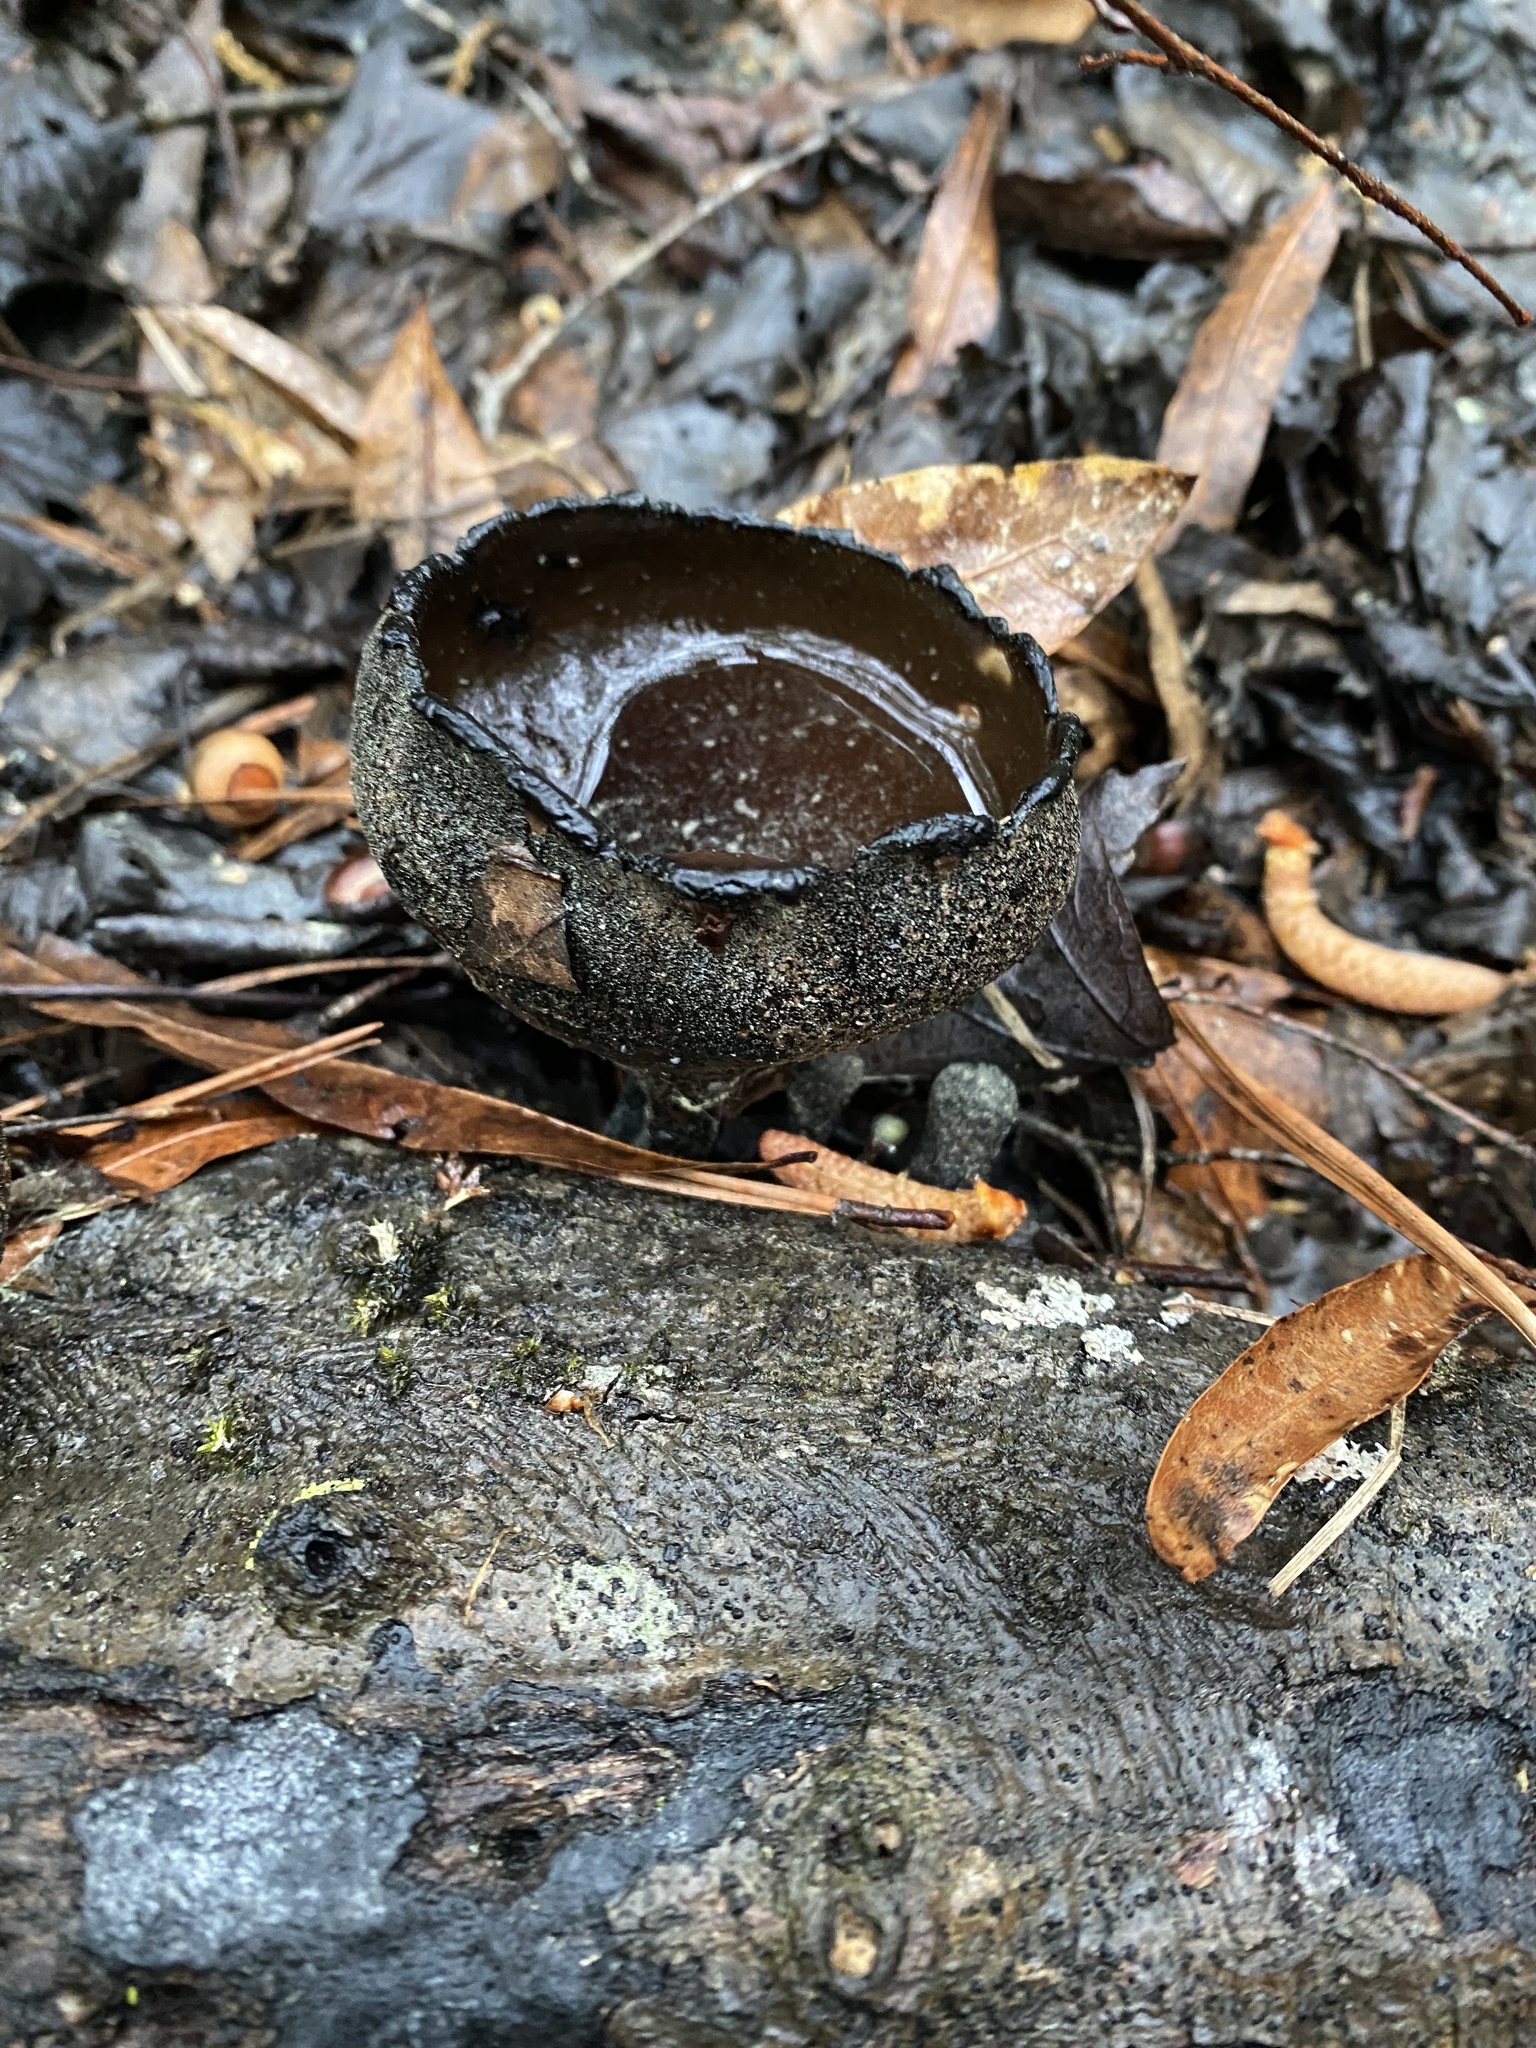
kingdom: Fungi
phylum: Ascomycota
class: Pezizomycetes
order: Pezizales
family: Sarcosomataceae
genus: Urnula
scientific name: Urnula craterium
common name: Devil's urn
